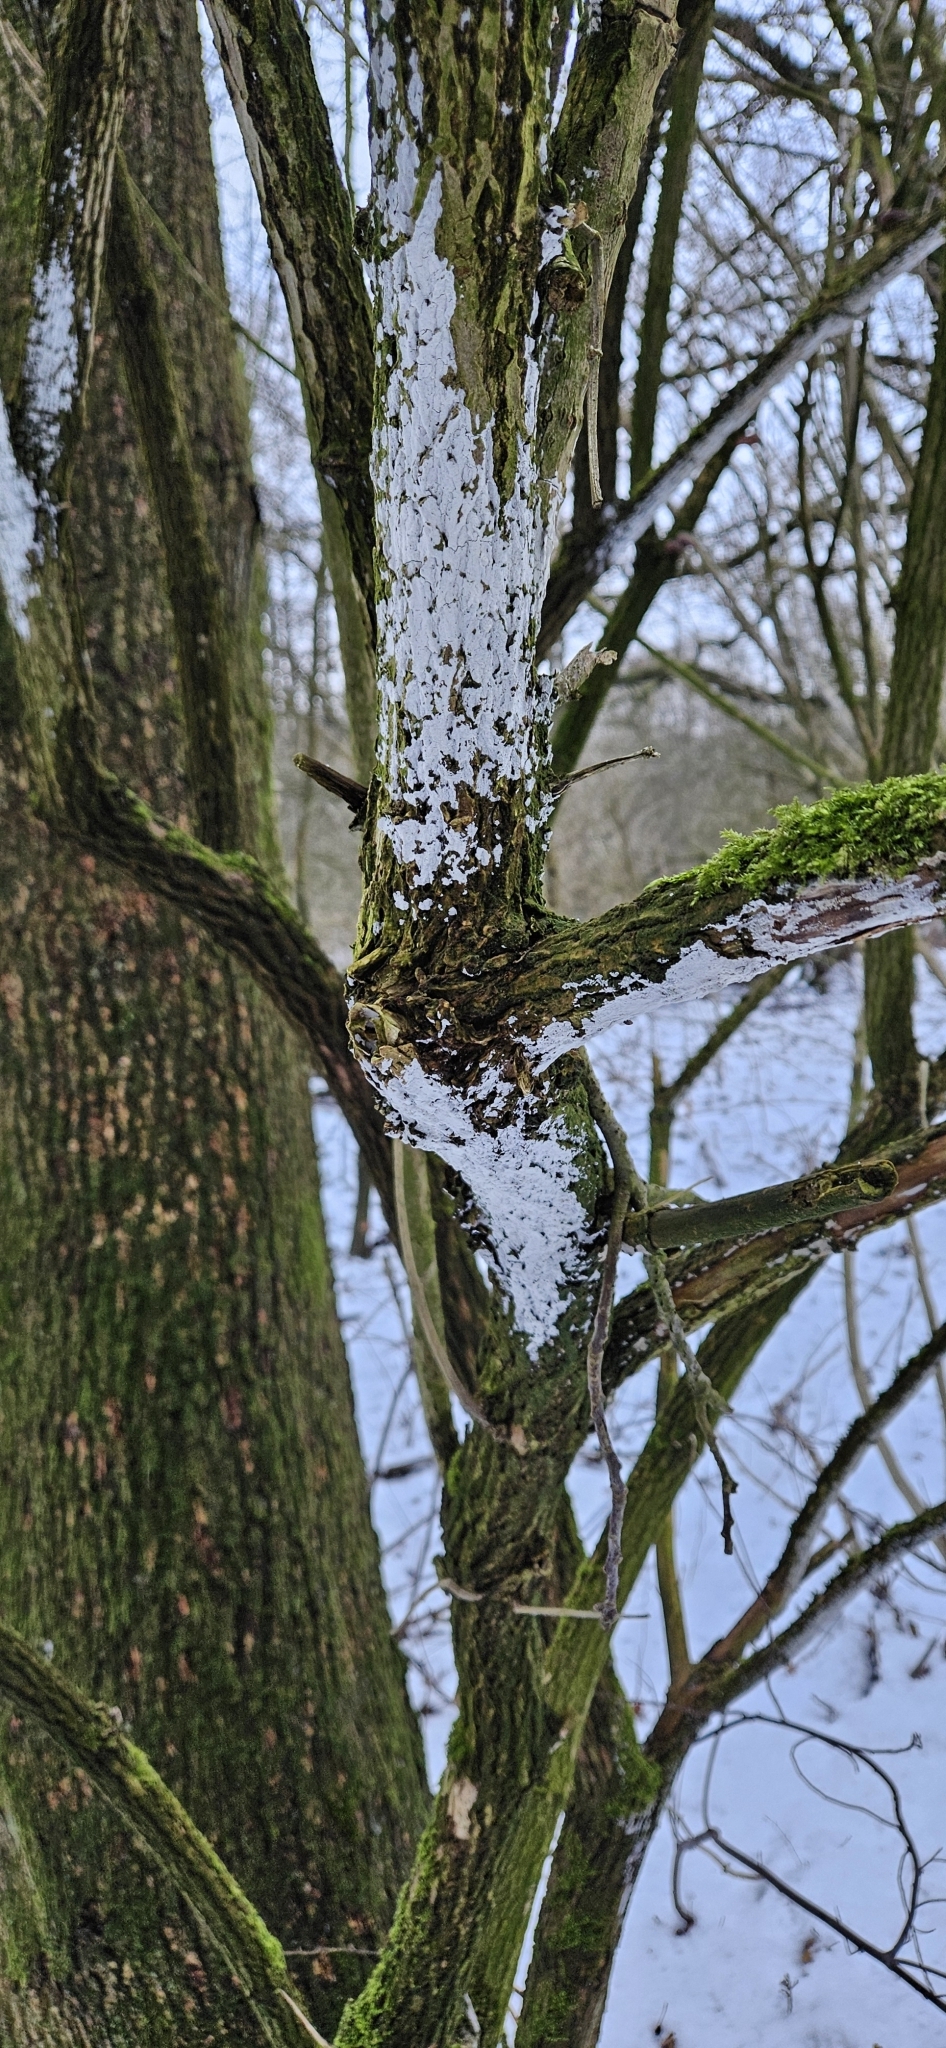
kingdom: Fungi
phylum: Basidiomycota
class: Agaricomycetes
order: Corticiales
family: Corticiaceae
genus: Lyomyces
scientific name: Lyomyces sambuci
